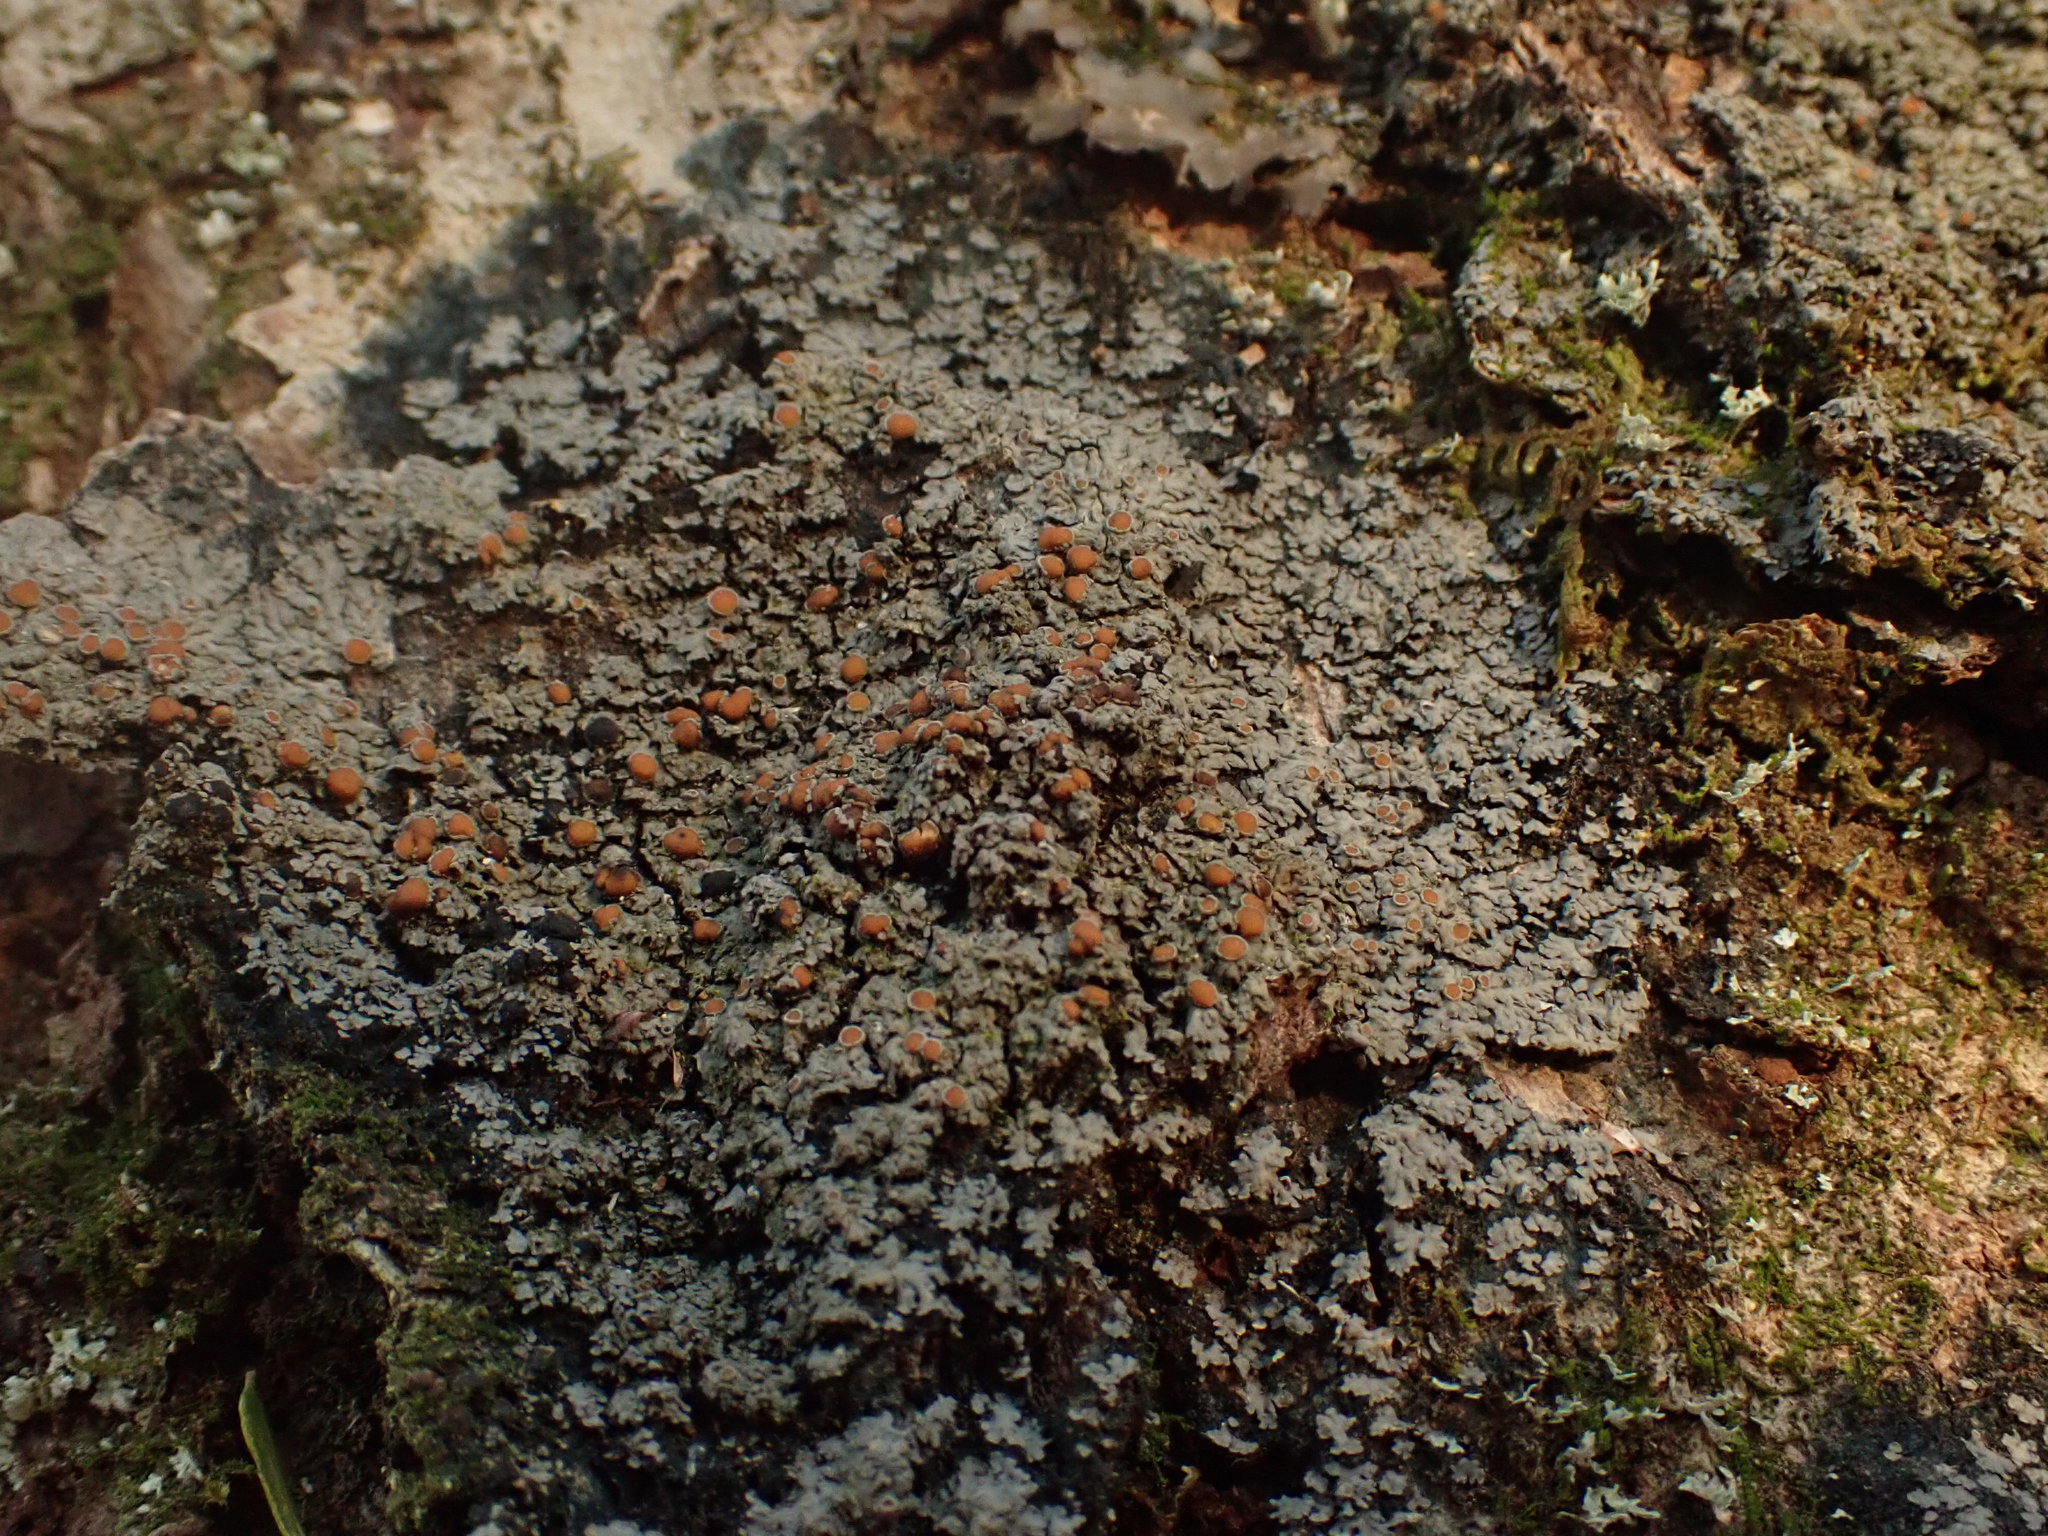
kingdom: Fungi
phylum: Ascomycota
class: Lecanoromycetes
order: Peltigerales
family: Pannariaceae
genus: Pannaria
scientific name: Pannaria rubiginosa
